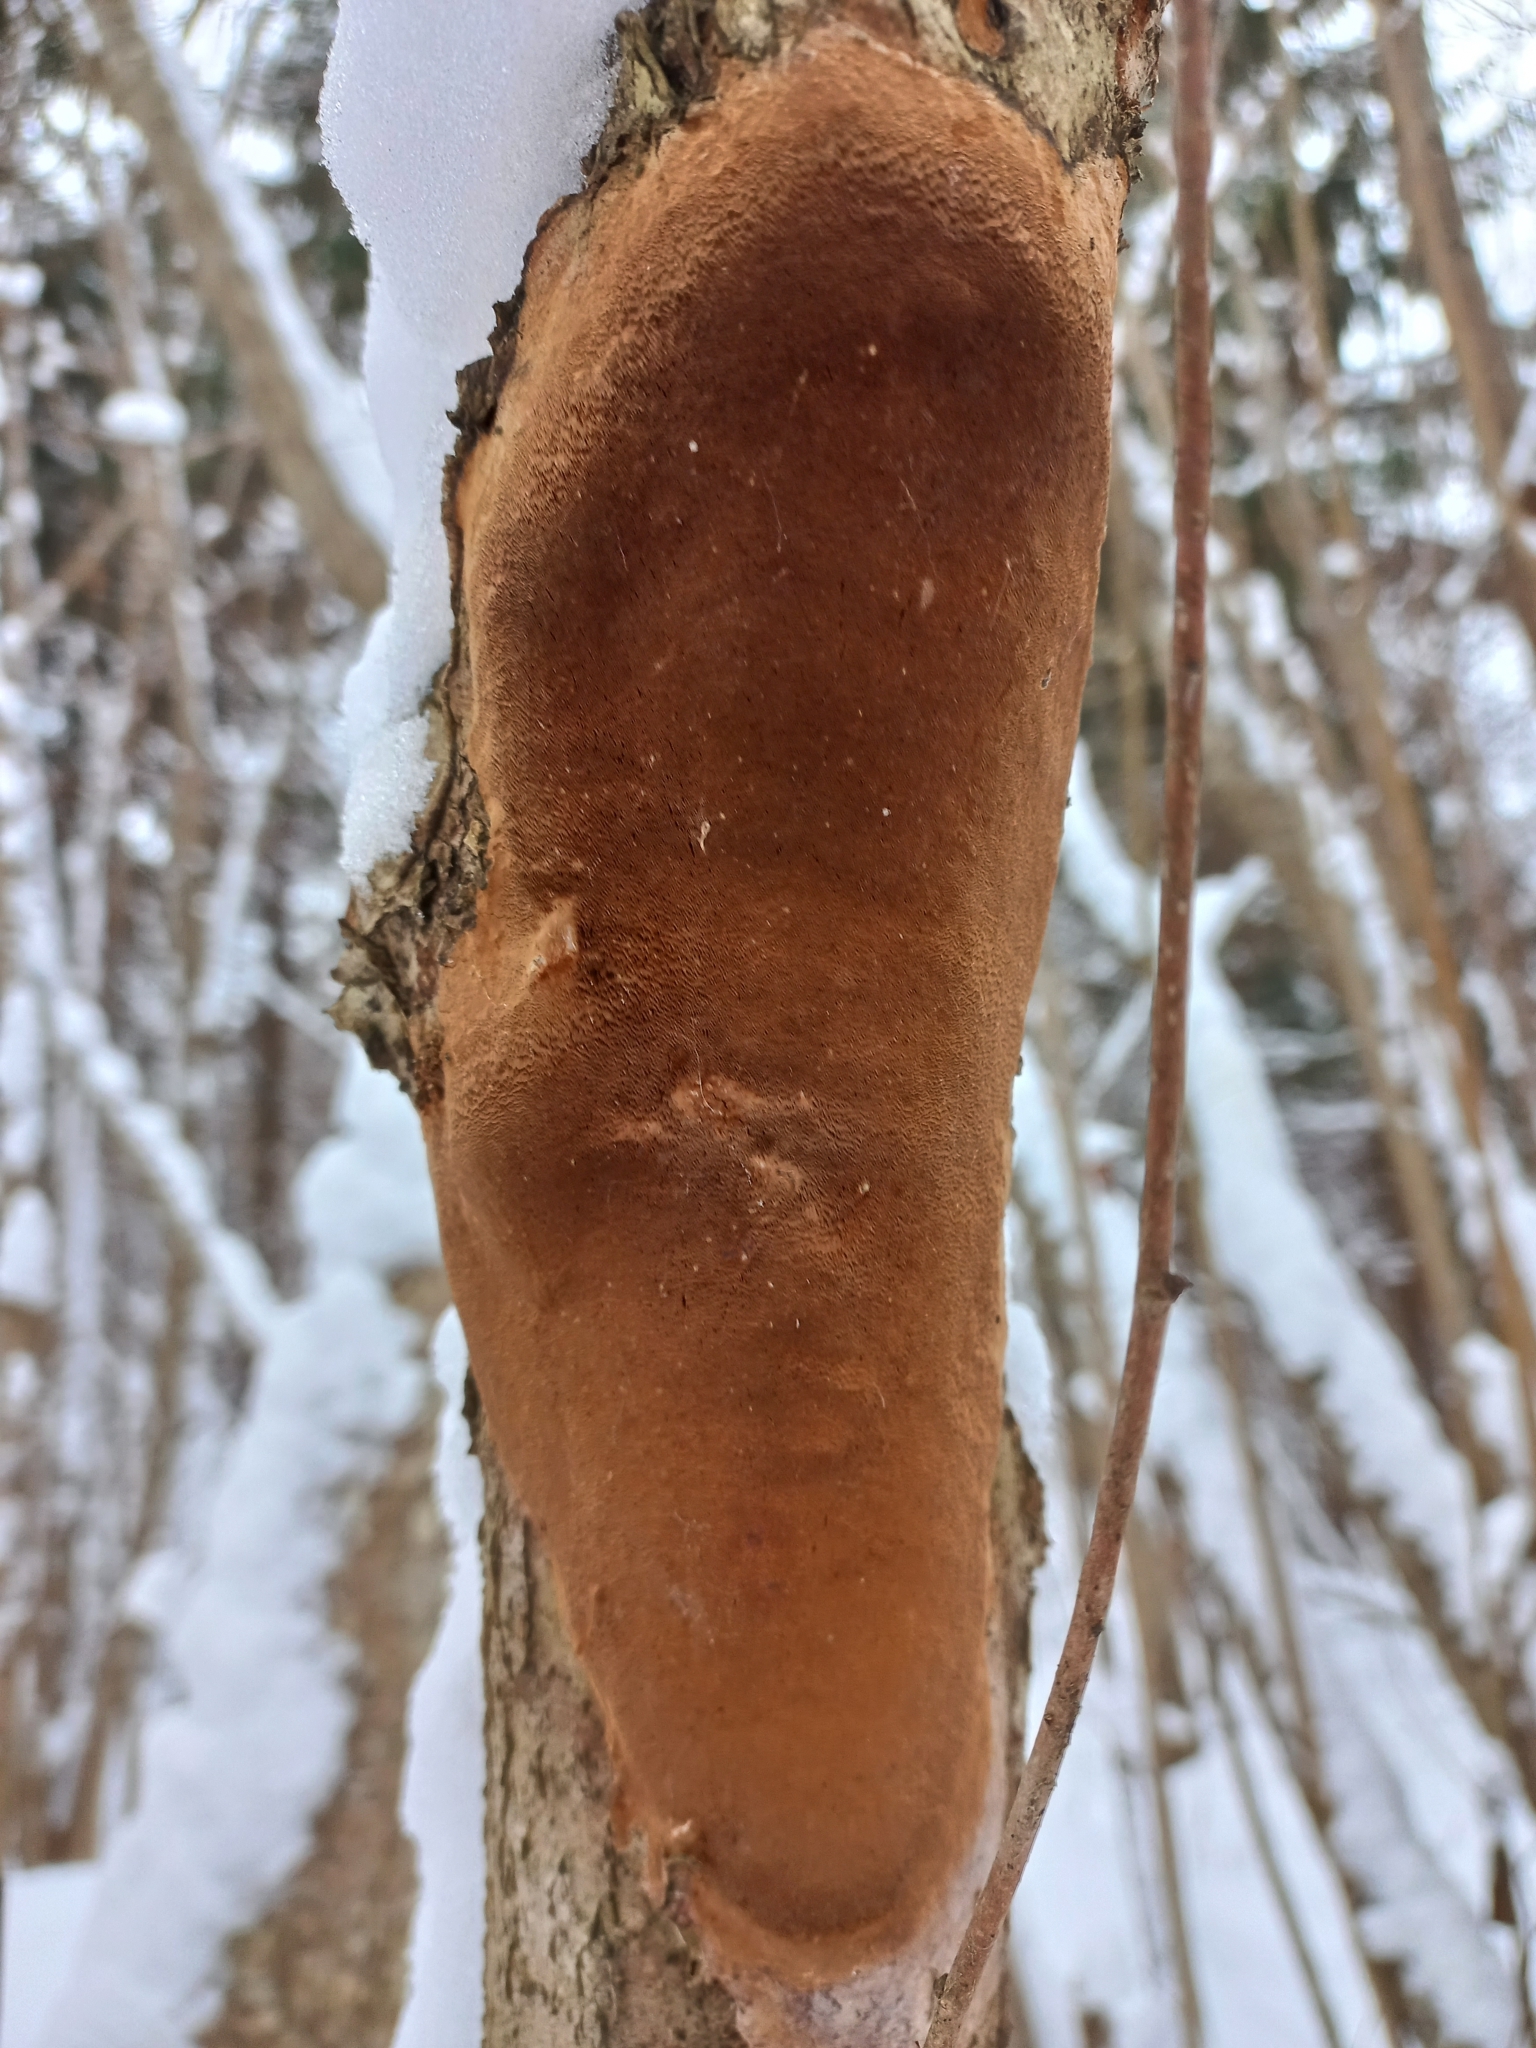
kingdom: Fungi
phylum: Basidiomycota
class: Agaricomycetes
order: Hymenochaetales
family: Hymenochaetaceae
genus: Fomitiporia
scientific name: Fomitiporia punctata
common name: Elbowpatch crust
